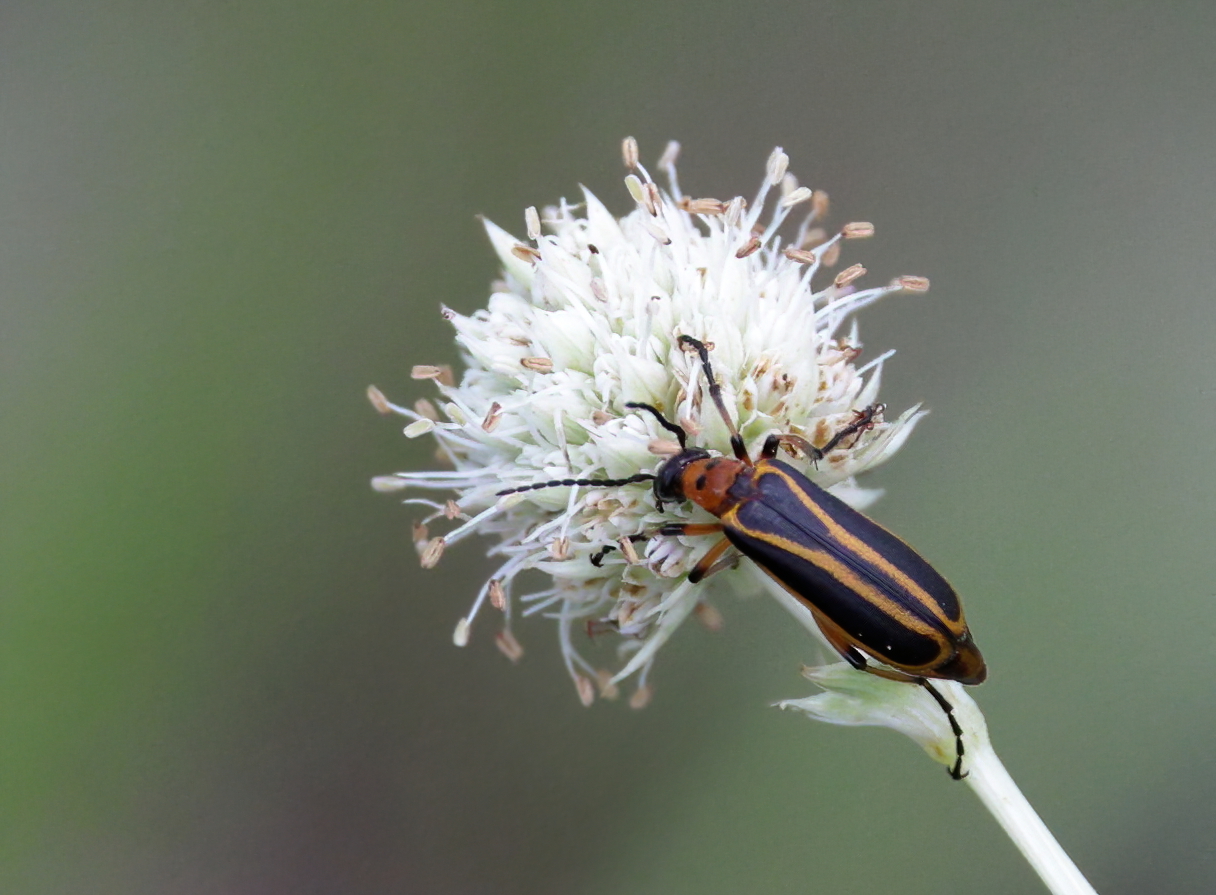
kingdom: Animalia
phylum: Arthropoda
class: Insecta
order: Coleoptera
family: Meloidae
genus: Pyrota
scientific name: Pyrota
